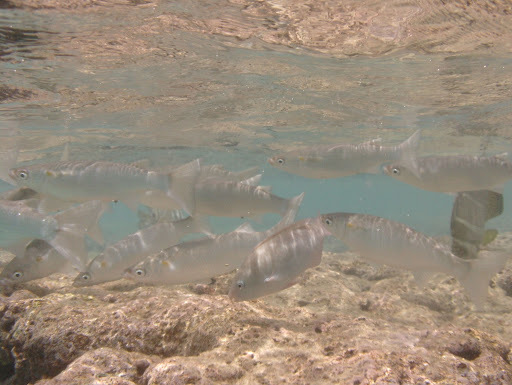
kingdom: Animalia
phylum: Chordata
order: Mugiliformes
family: Mugilidae
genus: Neomyxus
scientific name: Neomyxus leuciscus
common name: Acute-jawed mullet
